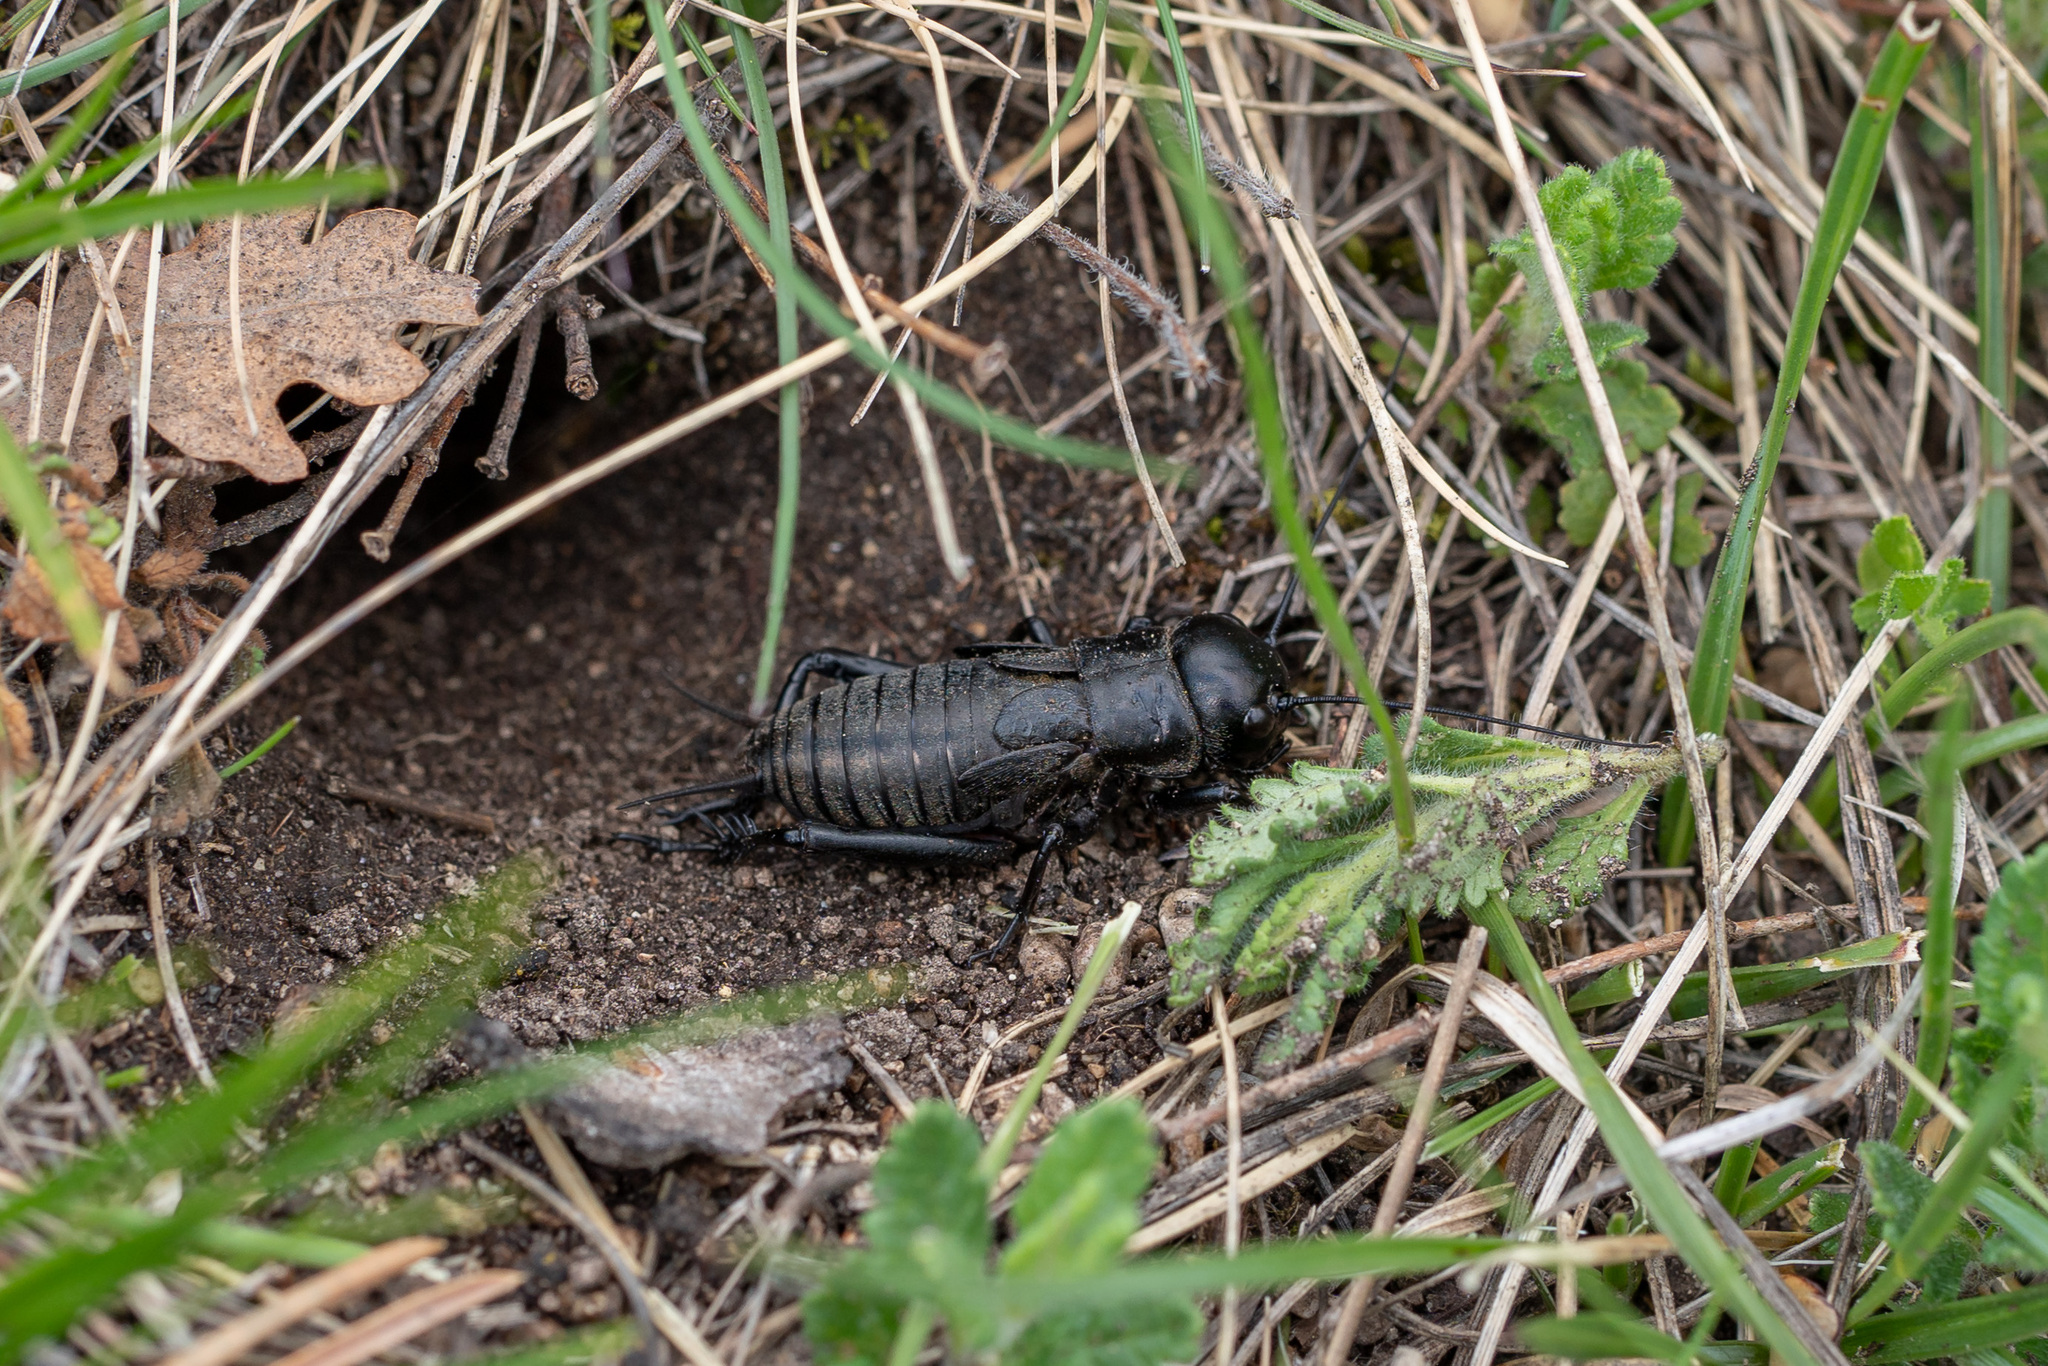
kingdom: Animalia
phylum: Arthropoda
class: Insecta
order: Orthoptera
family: Gryllidae
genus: Gryllus
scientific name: Gryllus campestris
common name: Field cricket
